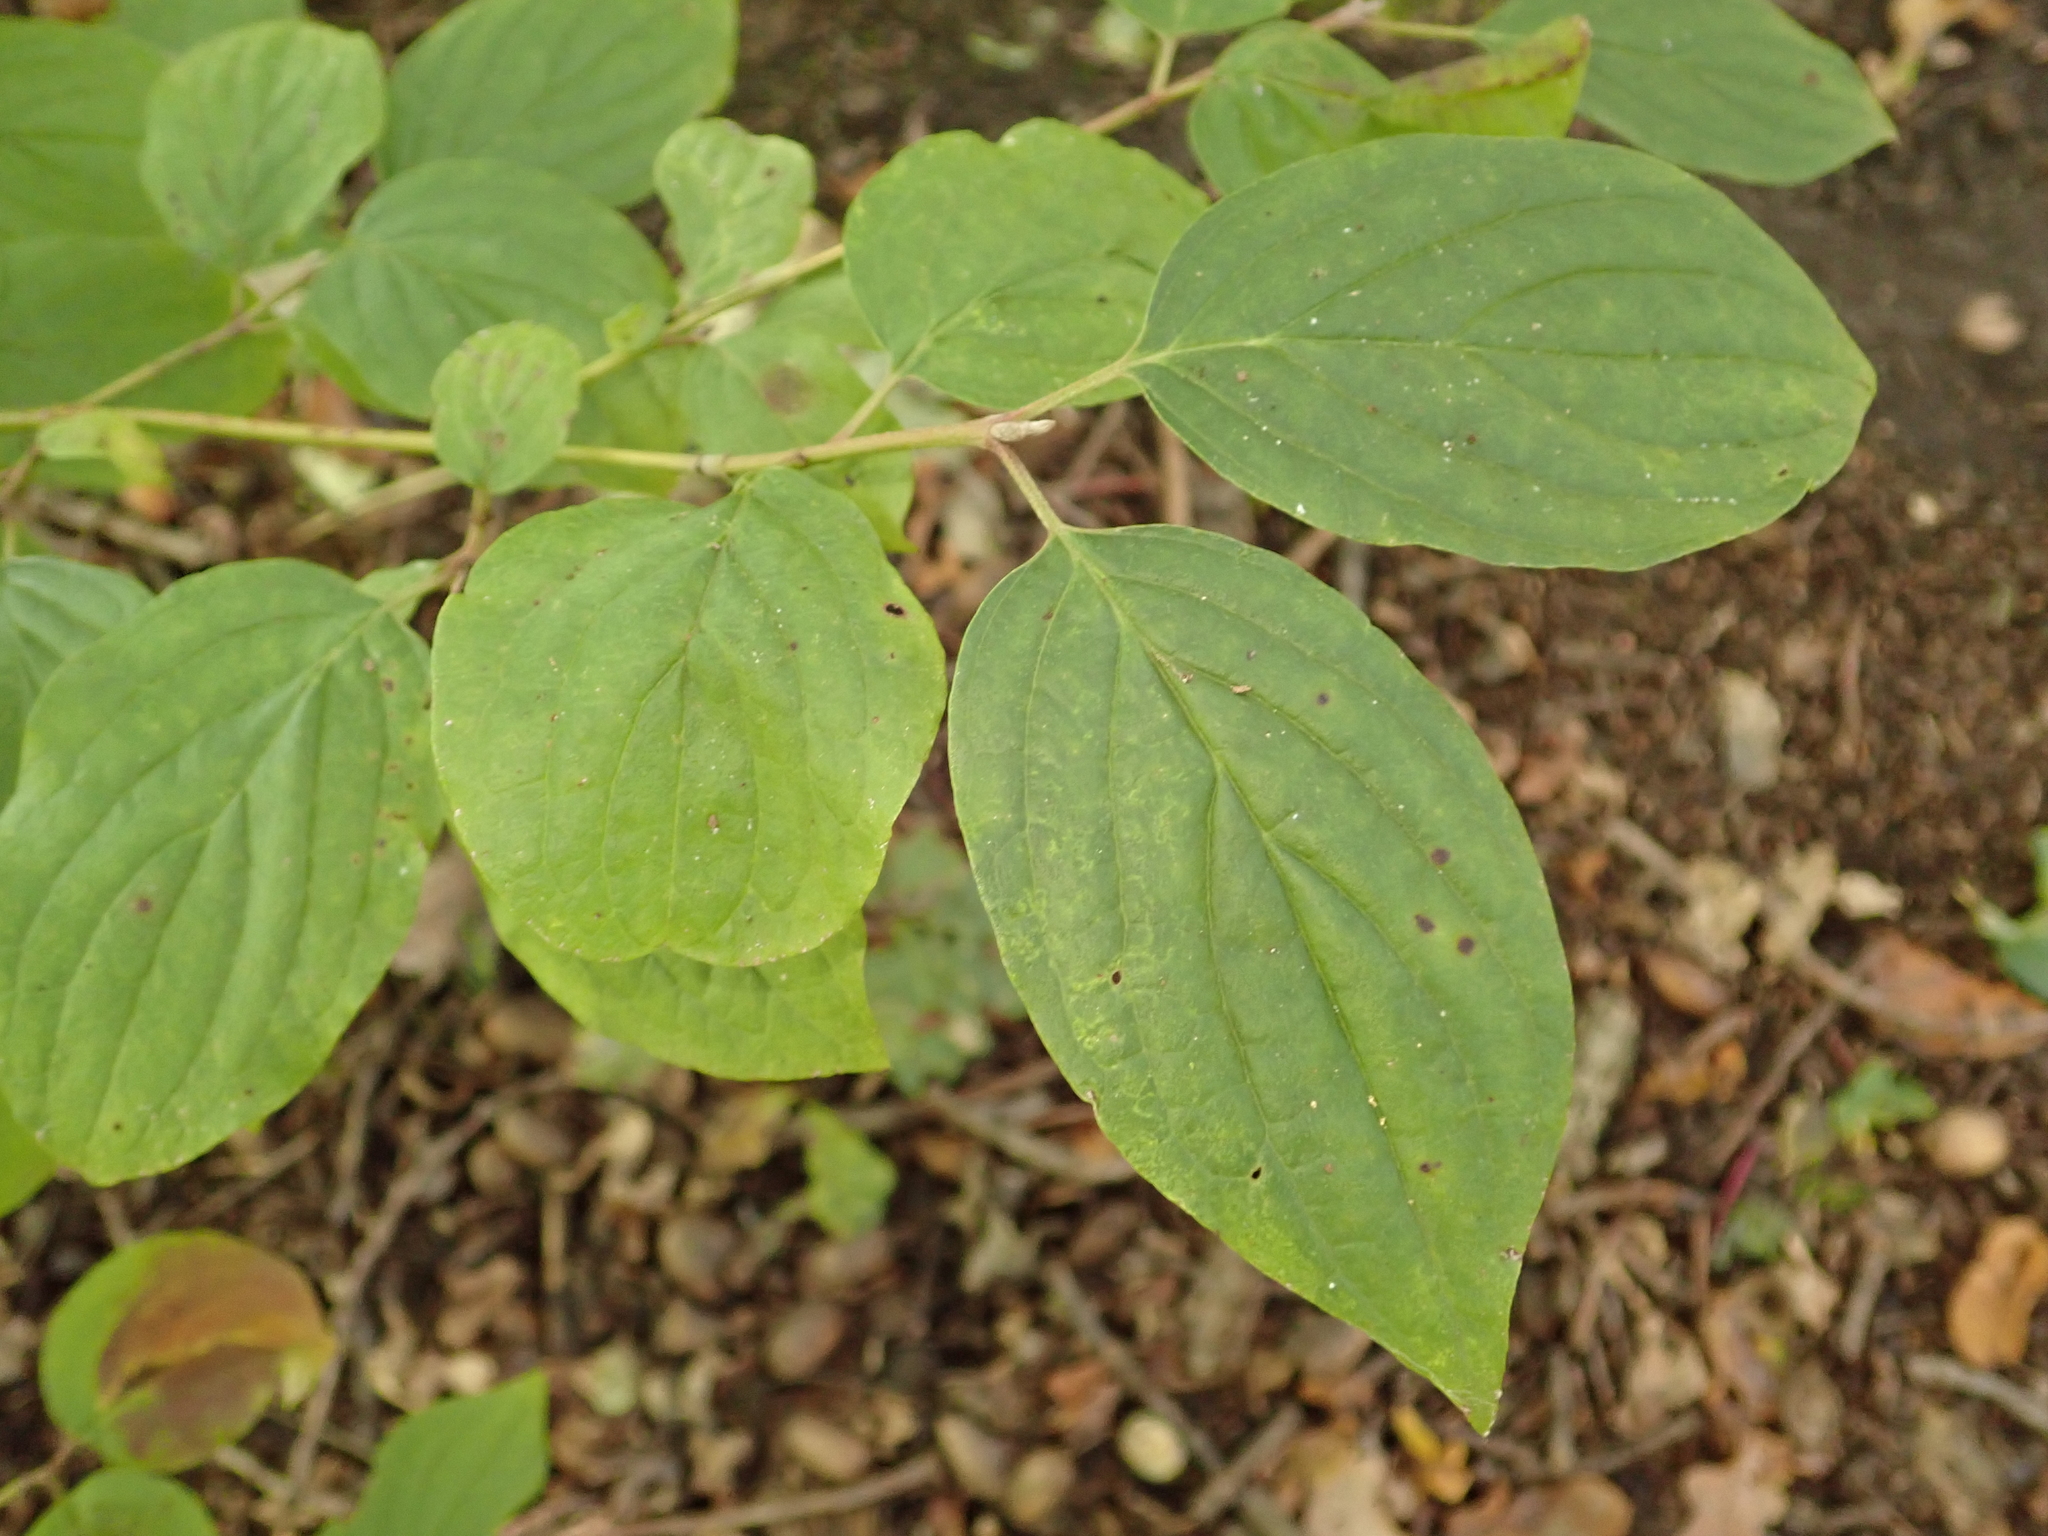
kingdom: Plantae
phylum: Tracheophyta
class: Magnoliopsida
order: Cornales
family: Cornaceae
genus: Cornus
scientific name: Cornus sanguinea
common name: Dogwood
